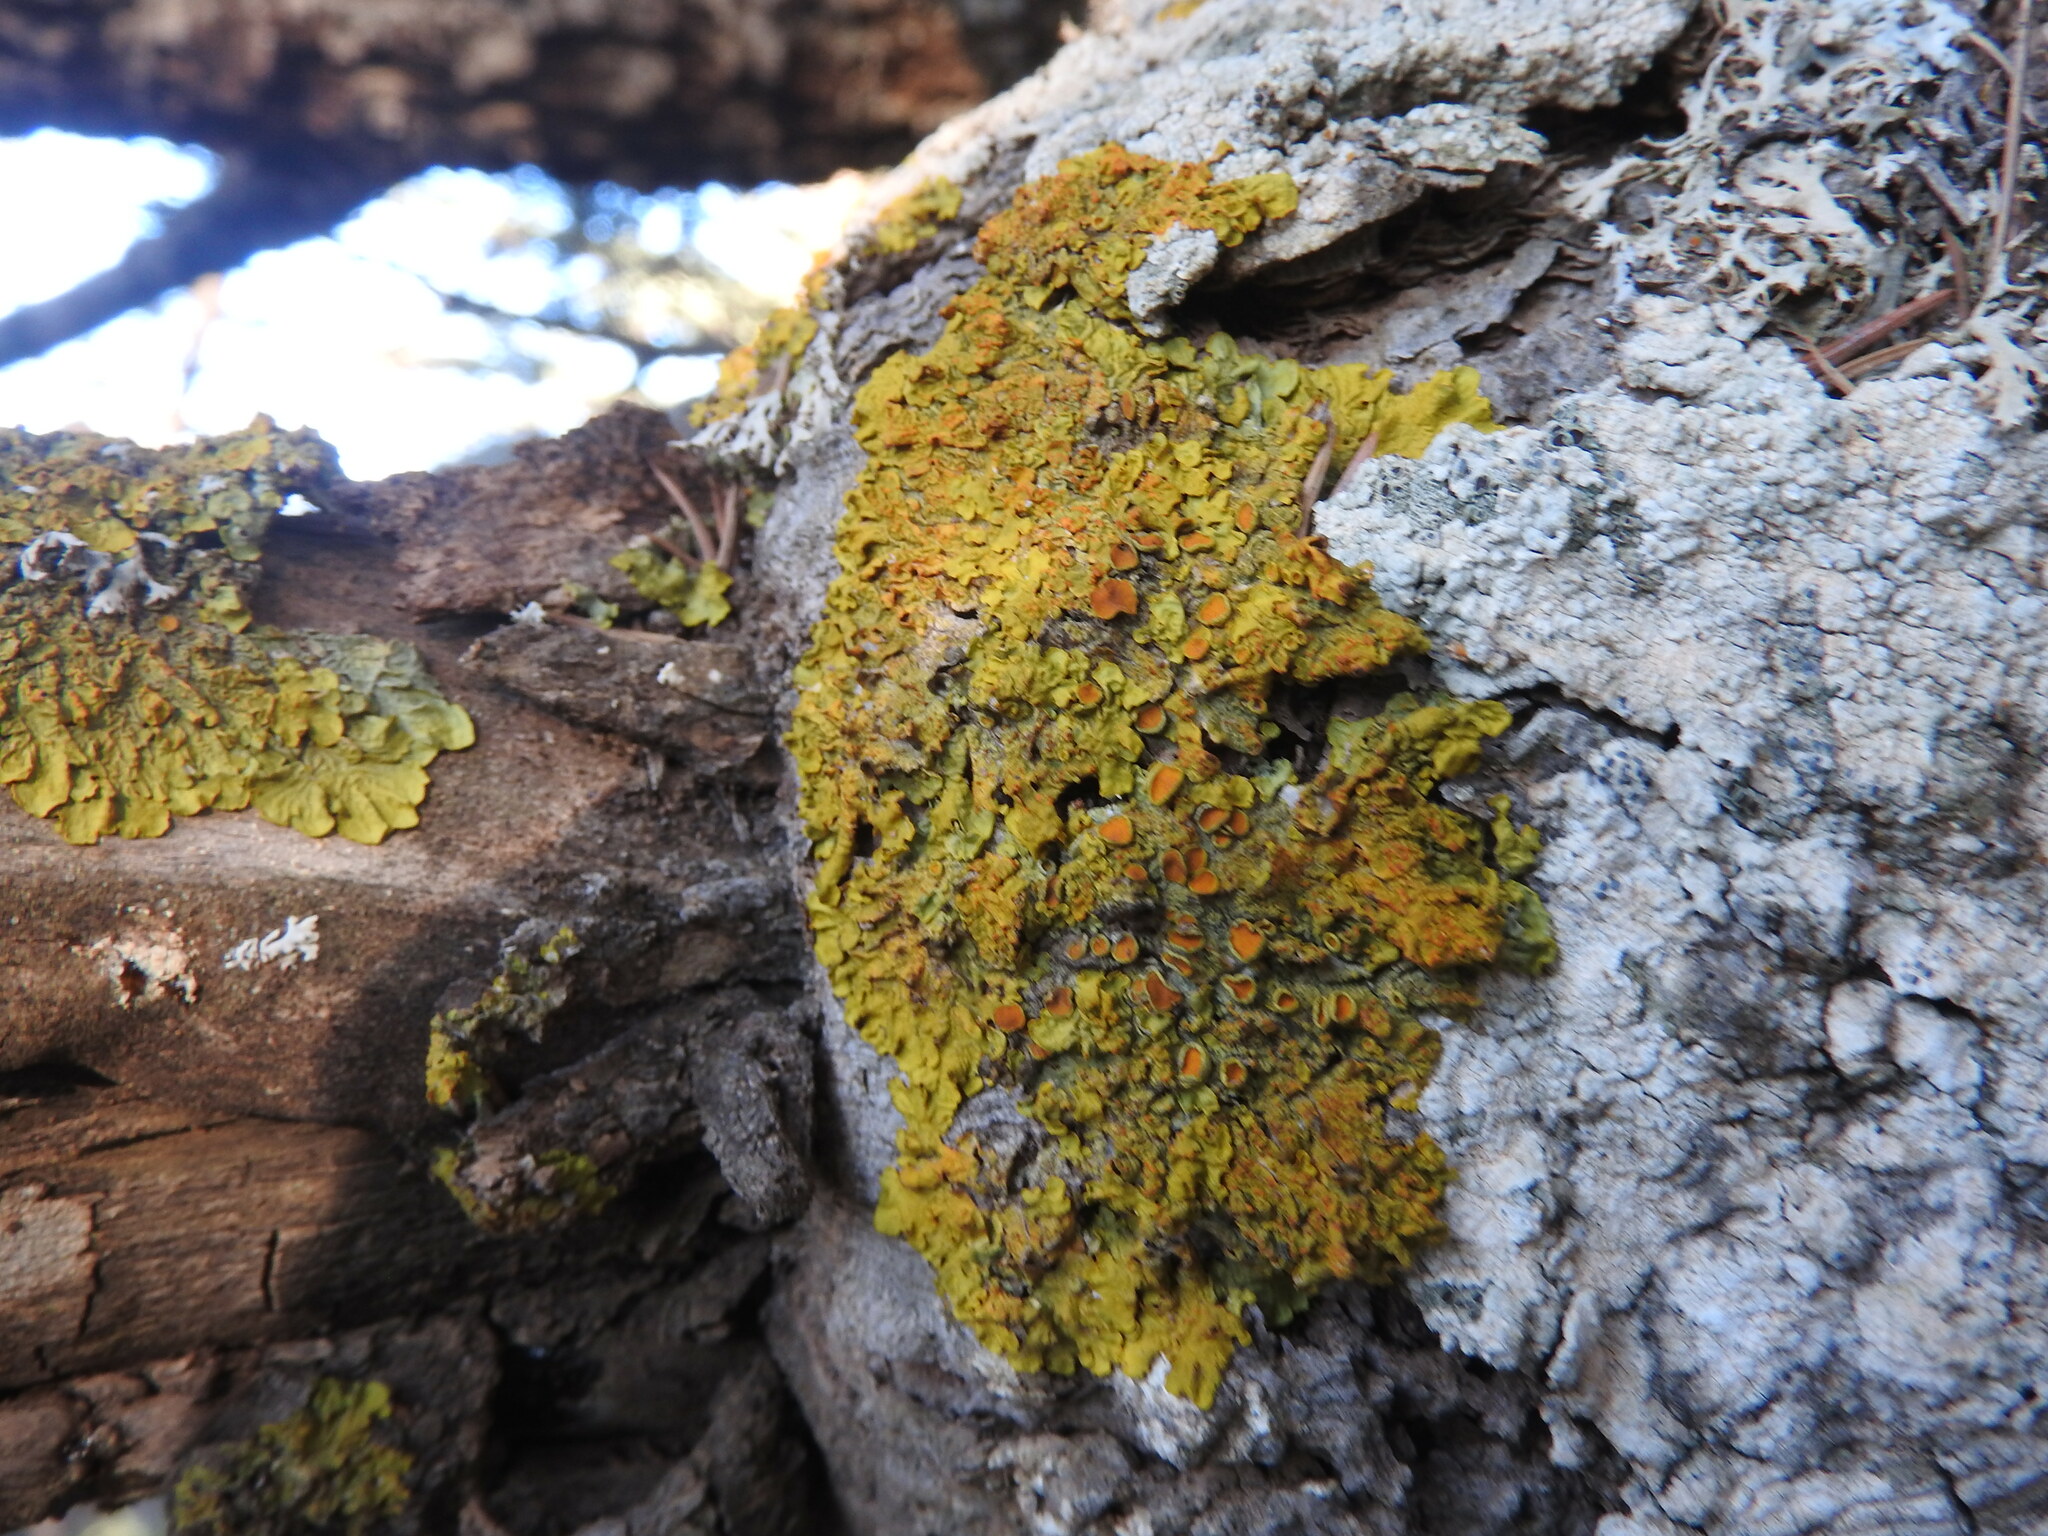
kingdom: Fungi
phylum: Ascomycota
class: Lecanoromycetes
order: Teloschistales
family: Teloschistaceae
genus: Xanthoria
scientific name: Xanthoria parietina
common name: Common orange lichen
